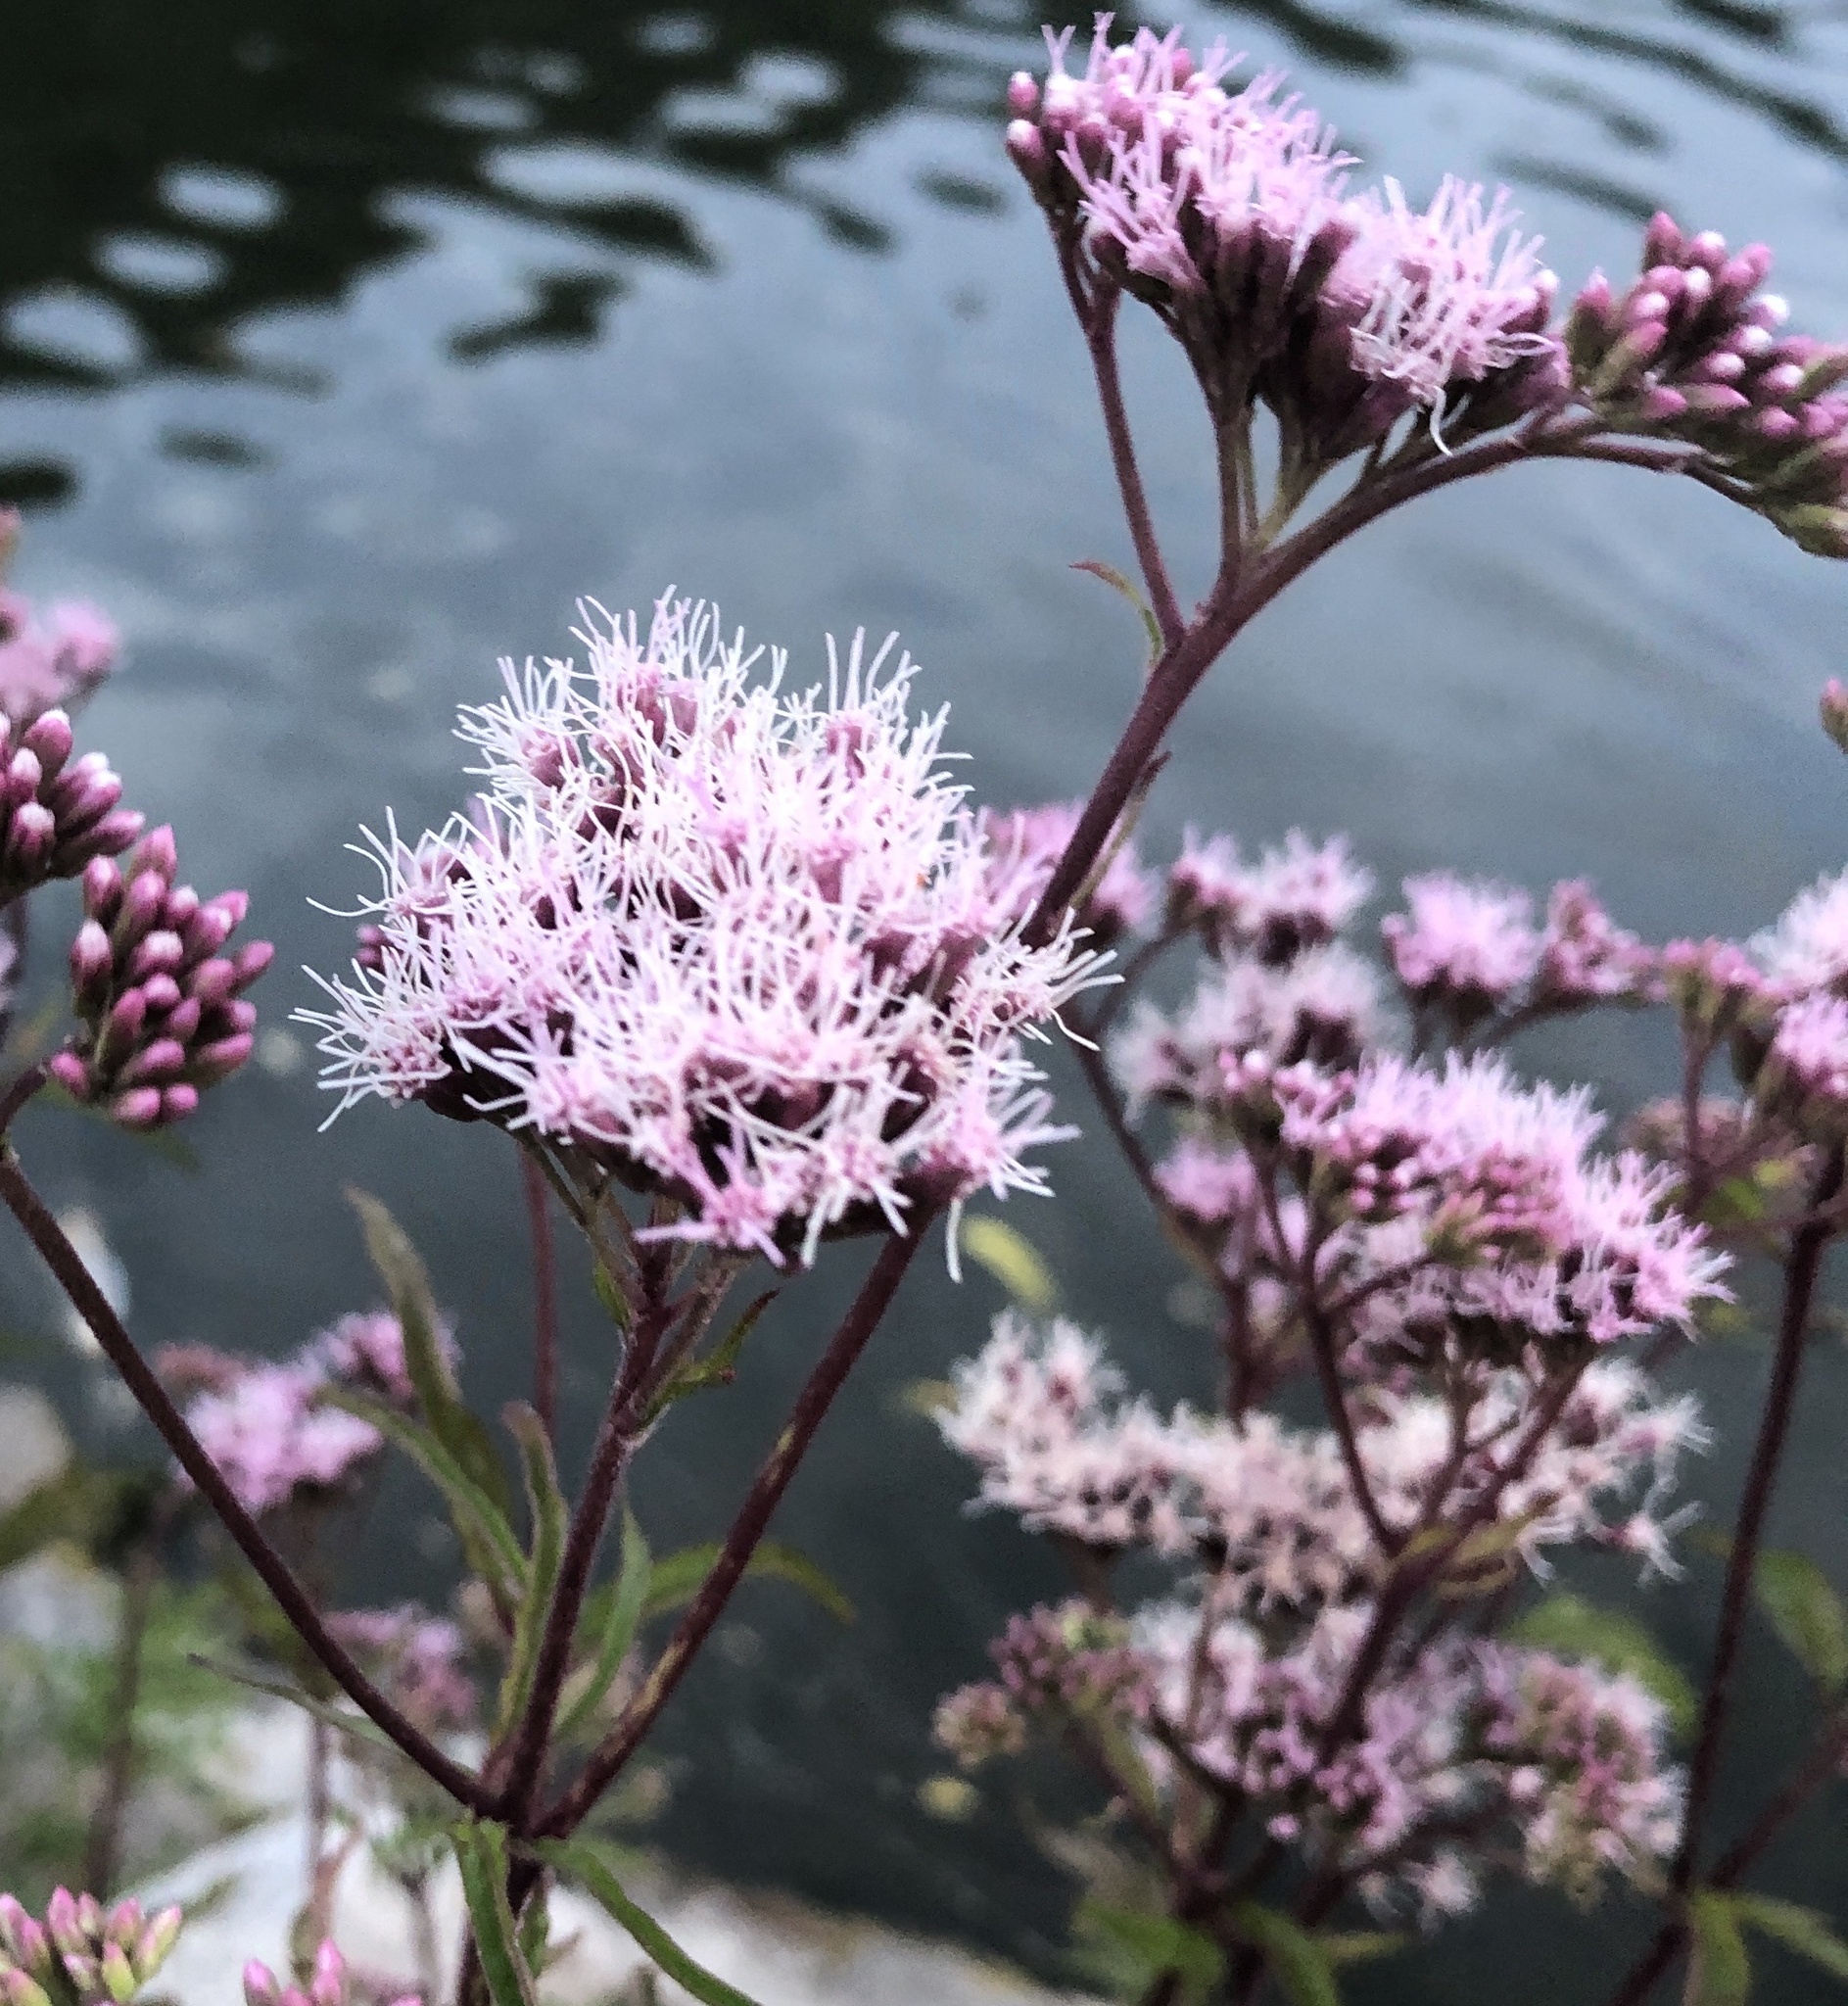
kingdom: Plantae
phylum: Tracheophyta
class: Magnoliopsida
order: Asterales
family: Asteraceae
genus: Eupatorium
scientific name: Eupatorium cannabinum
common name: Hemp-agrimony
